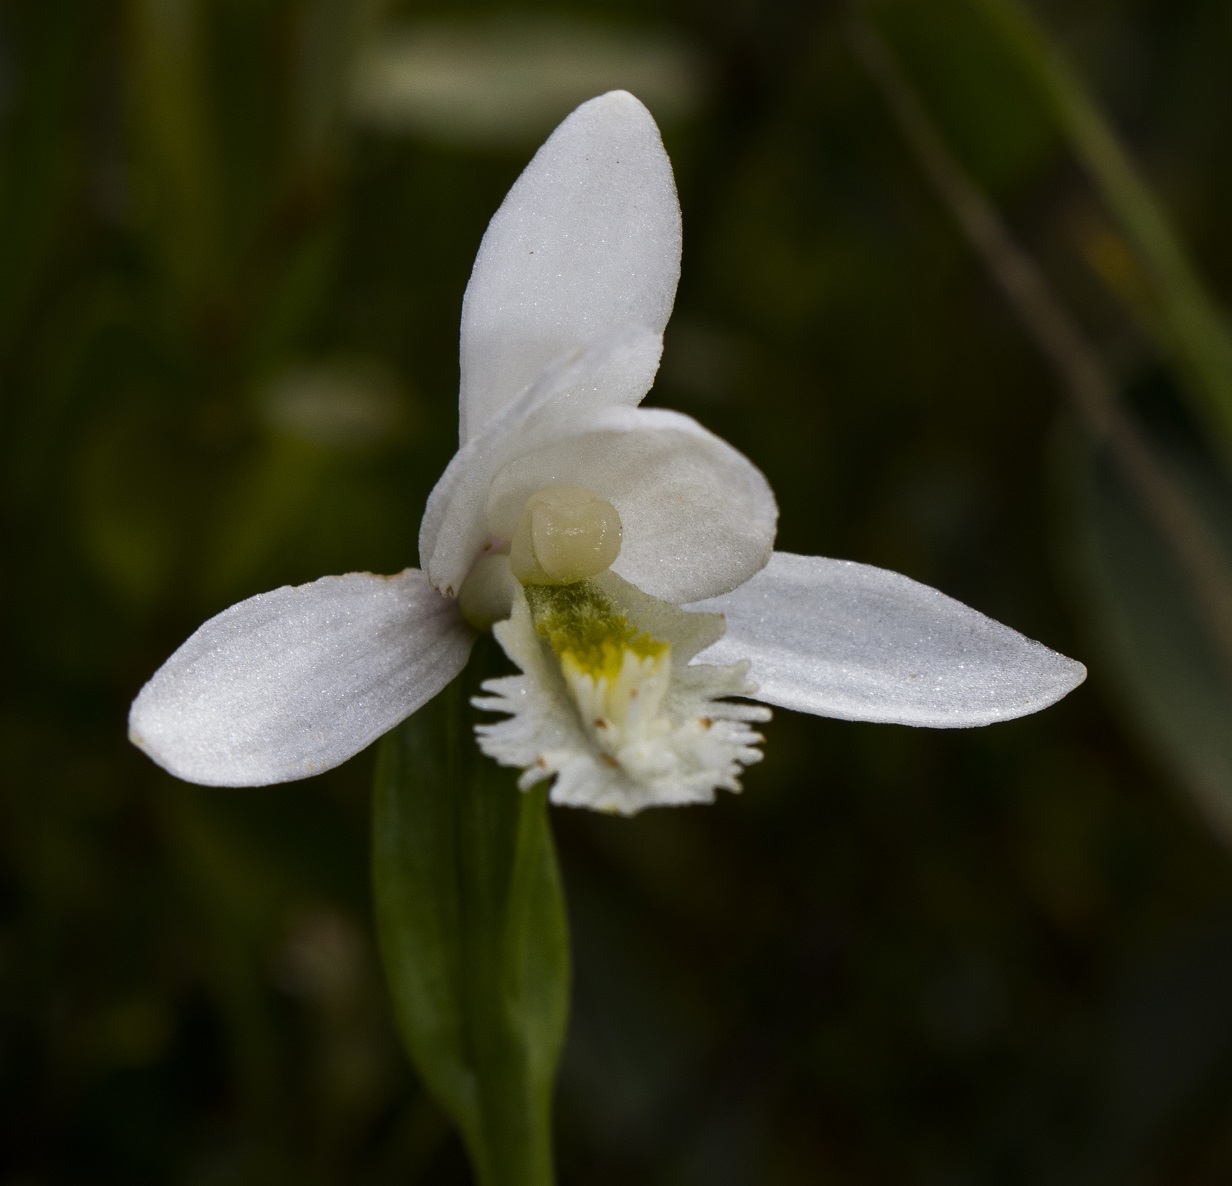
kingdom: Plantae
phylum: Tracheophyta
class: Liliopsida
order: Asparagales
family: Orchidaceae
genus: Pogonia
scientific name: Pogonia ophioglossoides
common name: Rose pogonia
